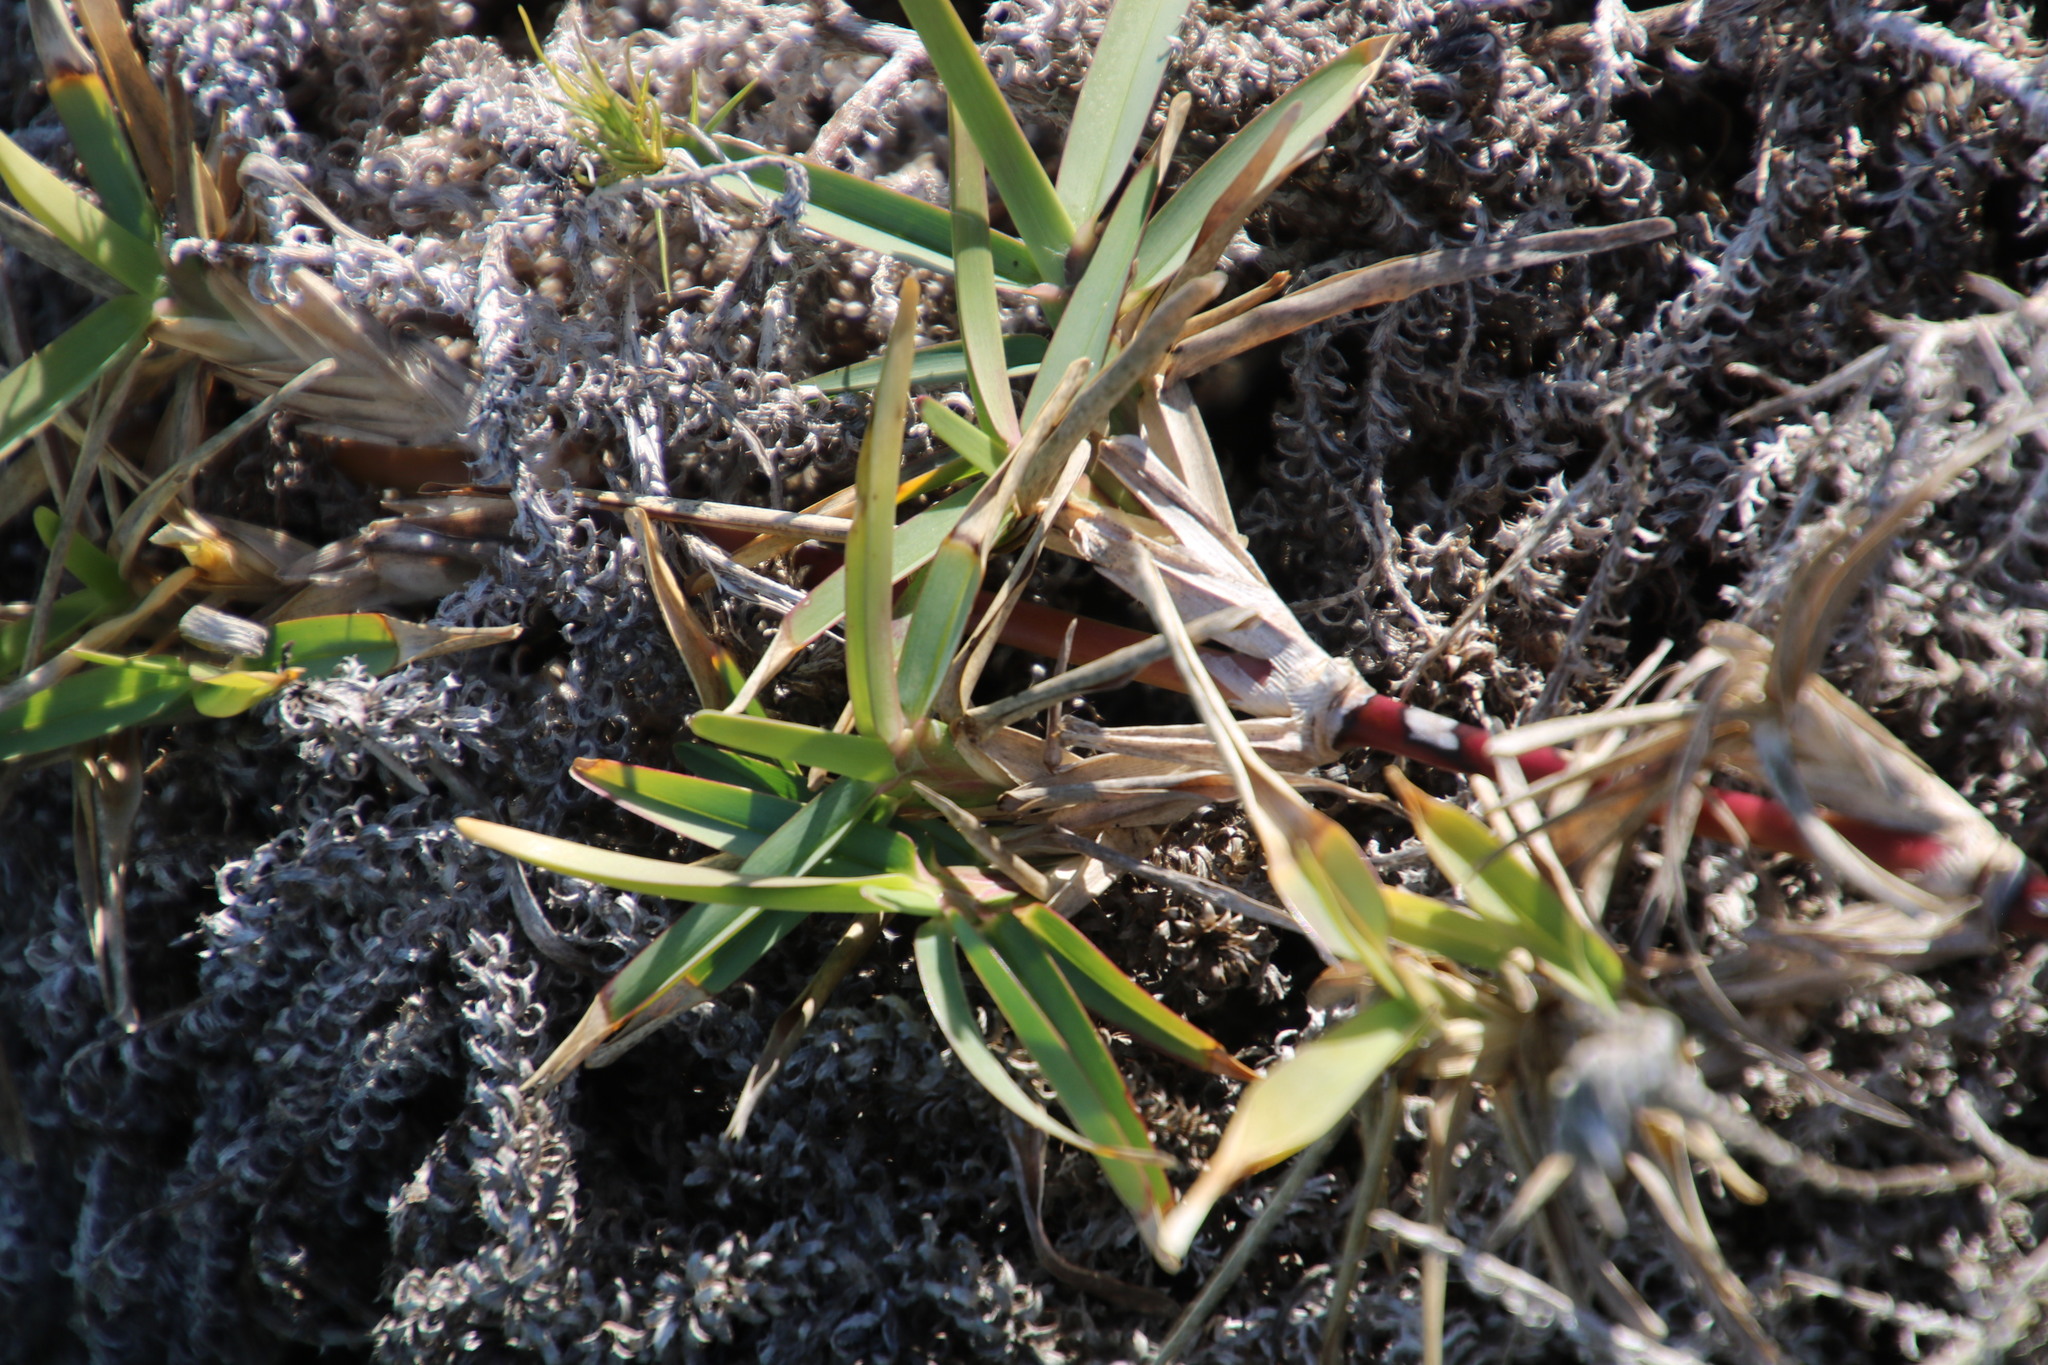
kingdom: Plantae
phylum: Tracheophyta
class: Liliopsida
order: Poales
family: Poaceae
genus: Stenotaphrum
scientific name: Stenotaphrum secundatum
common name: St. augustine grass
